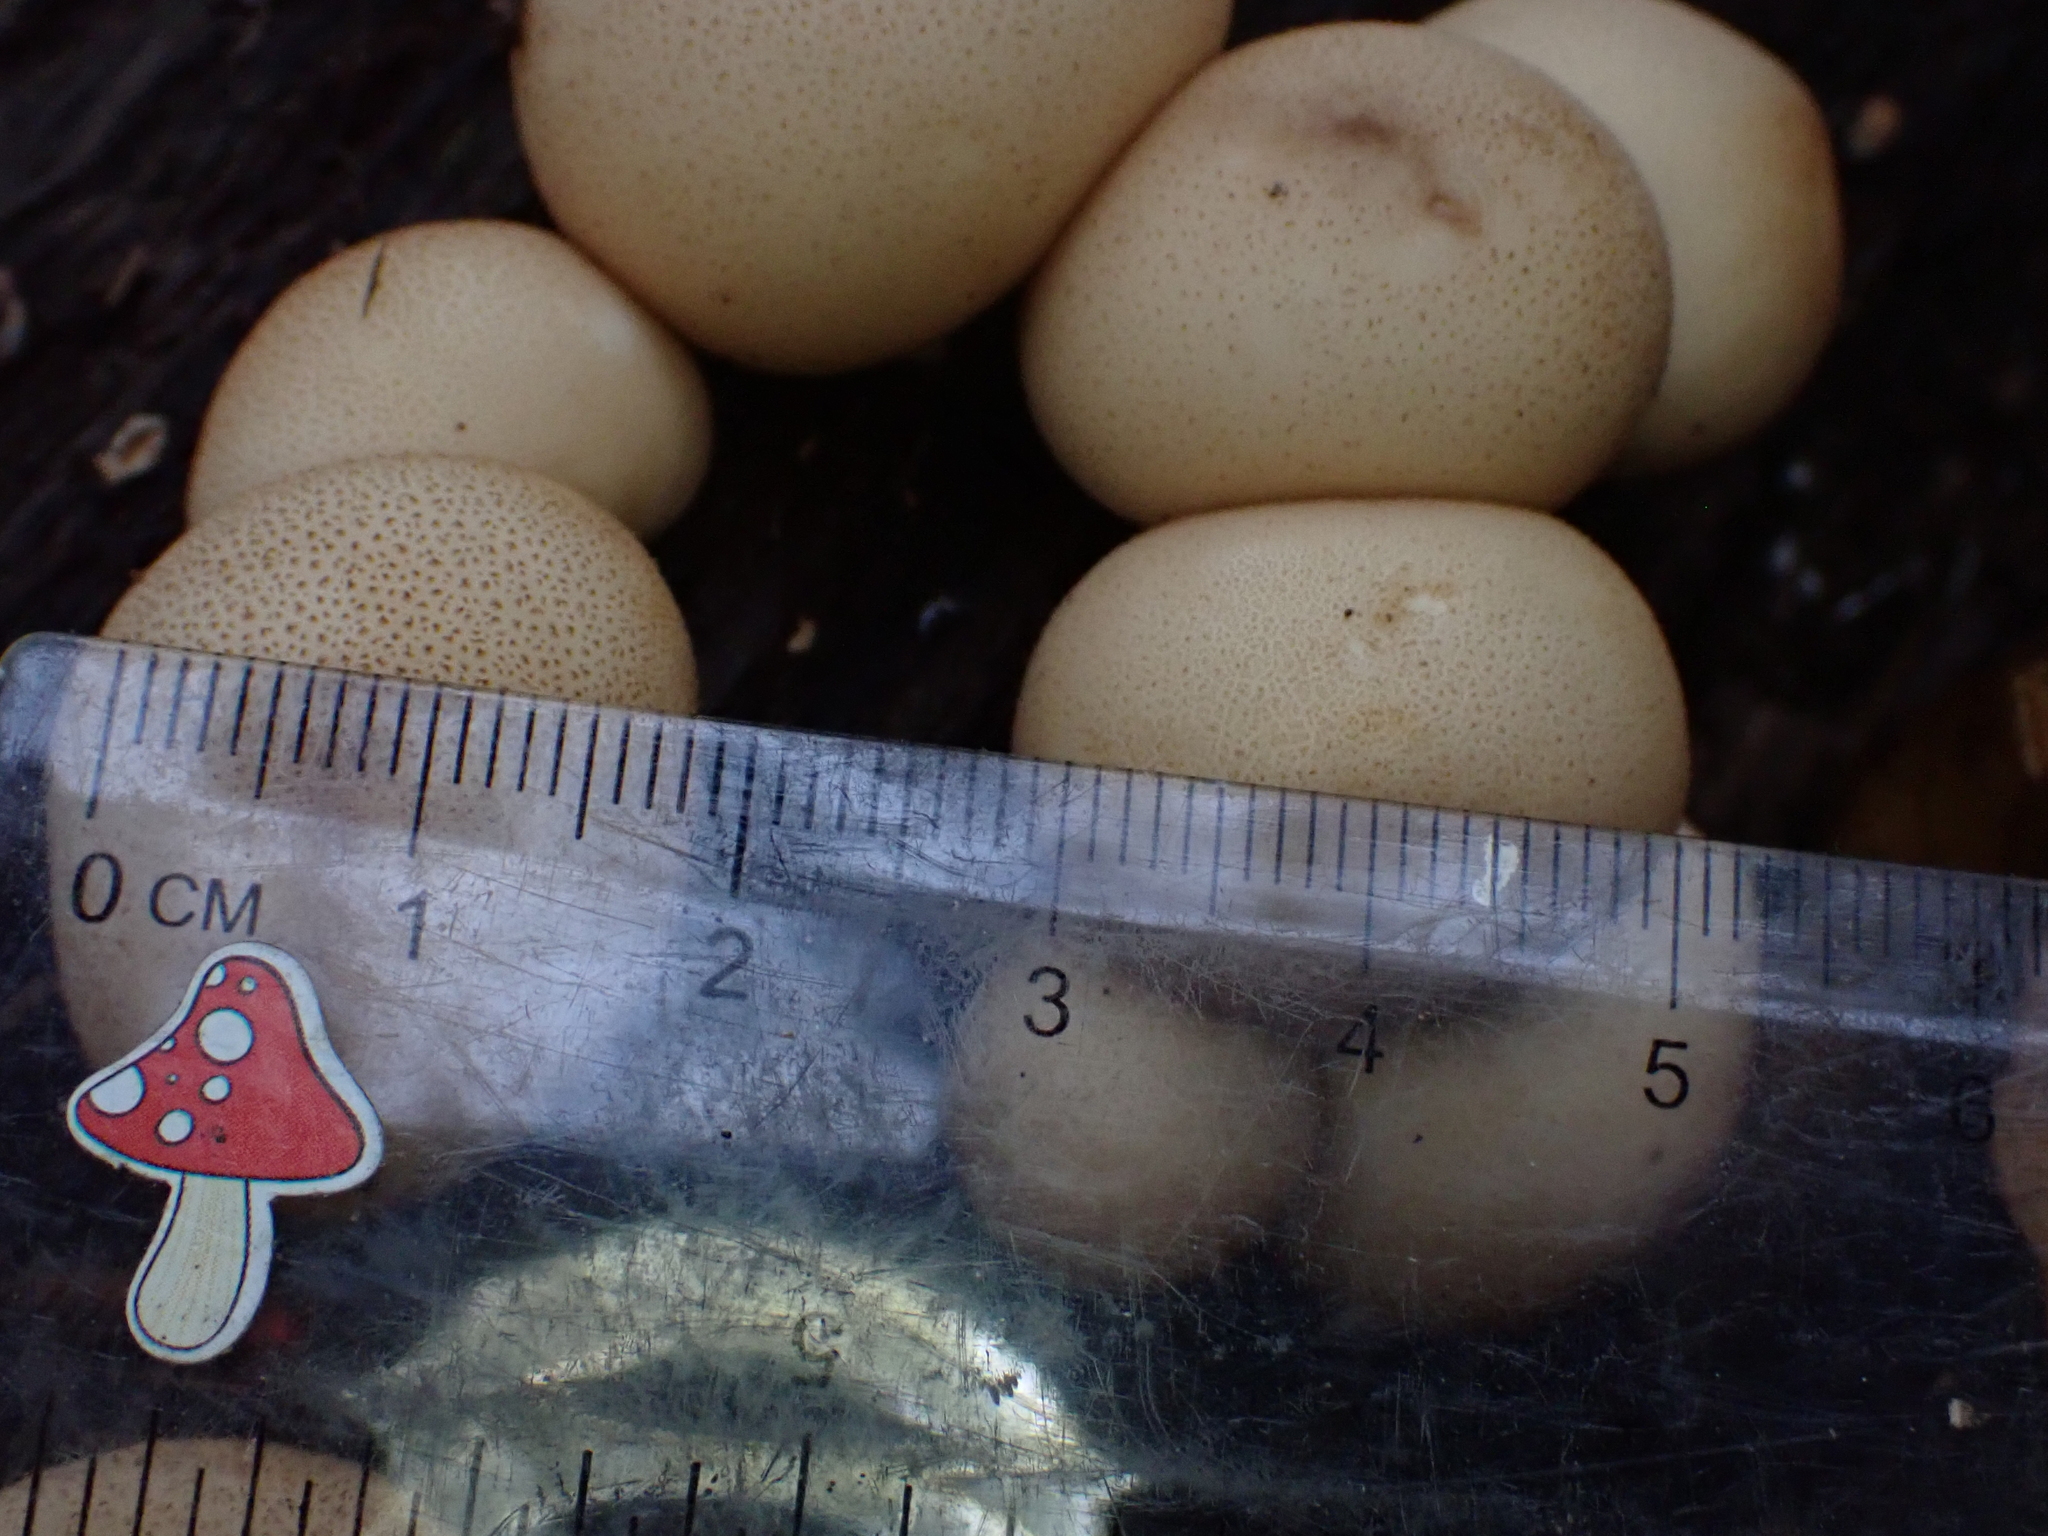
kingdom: Fungi
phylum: Basidiomycota
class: Agaricomycetes
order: Agaricales
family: Lycoperdaceae
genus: Apioperdon
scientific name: Apioperdon pyriforme
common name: Pear-shaped puffball
